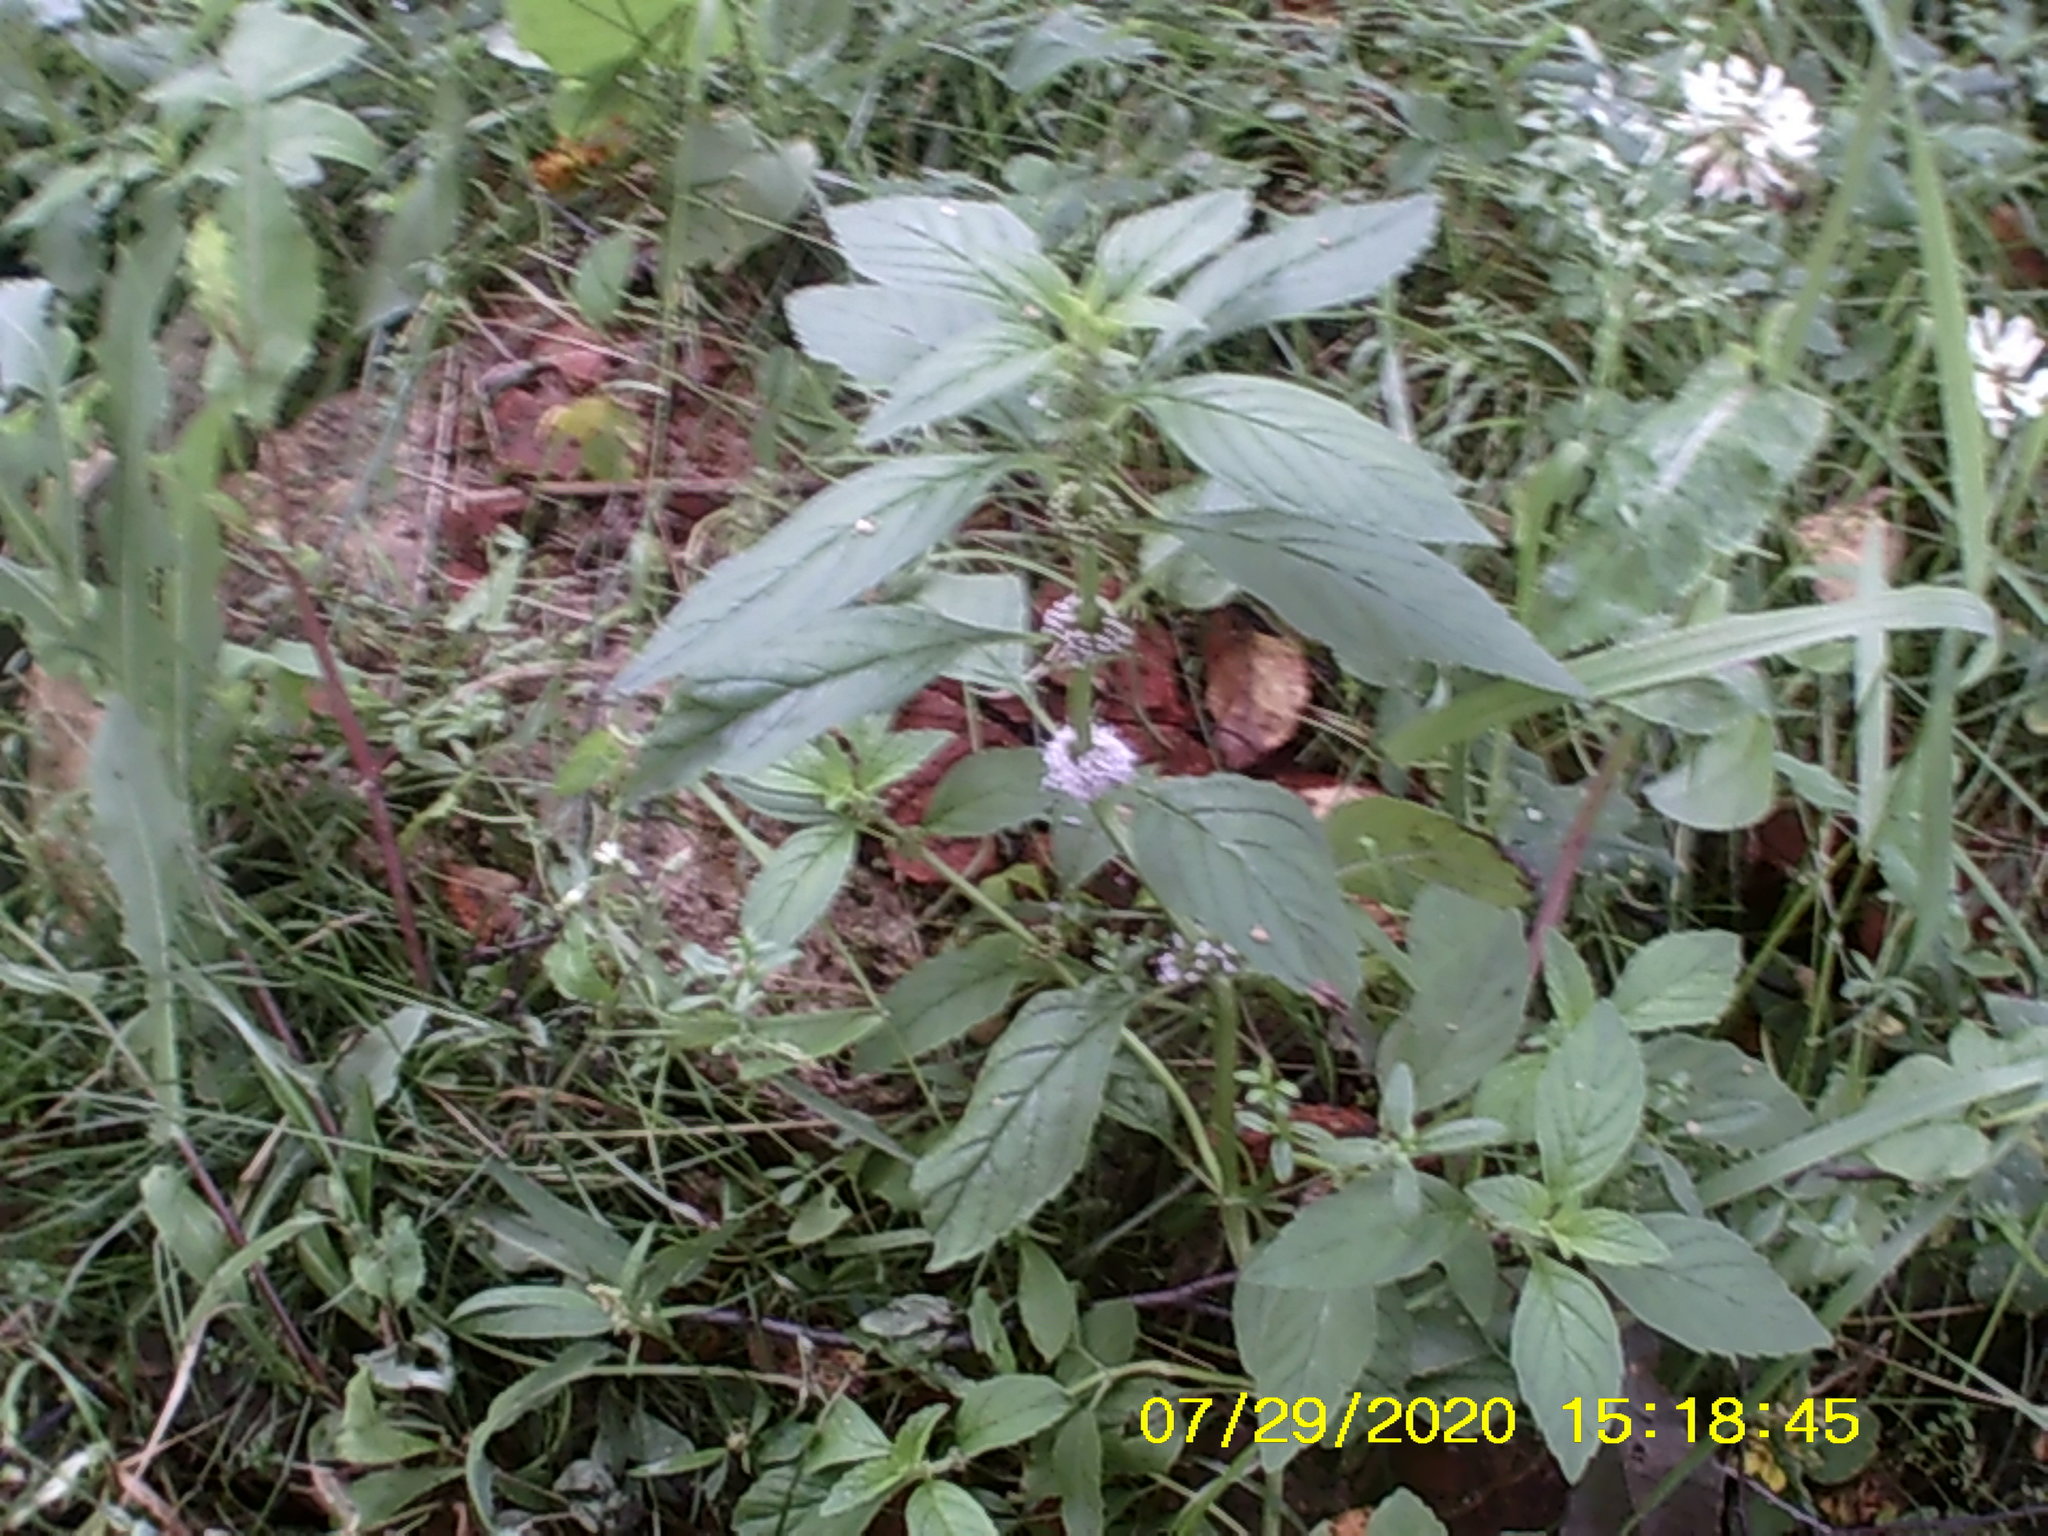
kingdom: Plantae
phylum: Tracheophyta
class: Magnoliopsida
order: Lamiales
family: Lamiaceae
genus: Mentha
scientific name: Mentha arvensis
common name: Corn mint
